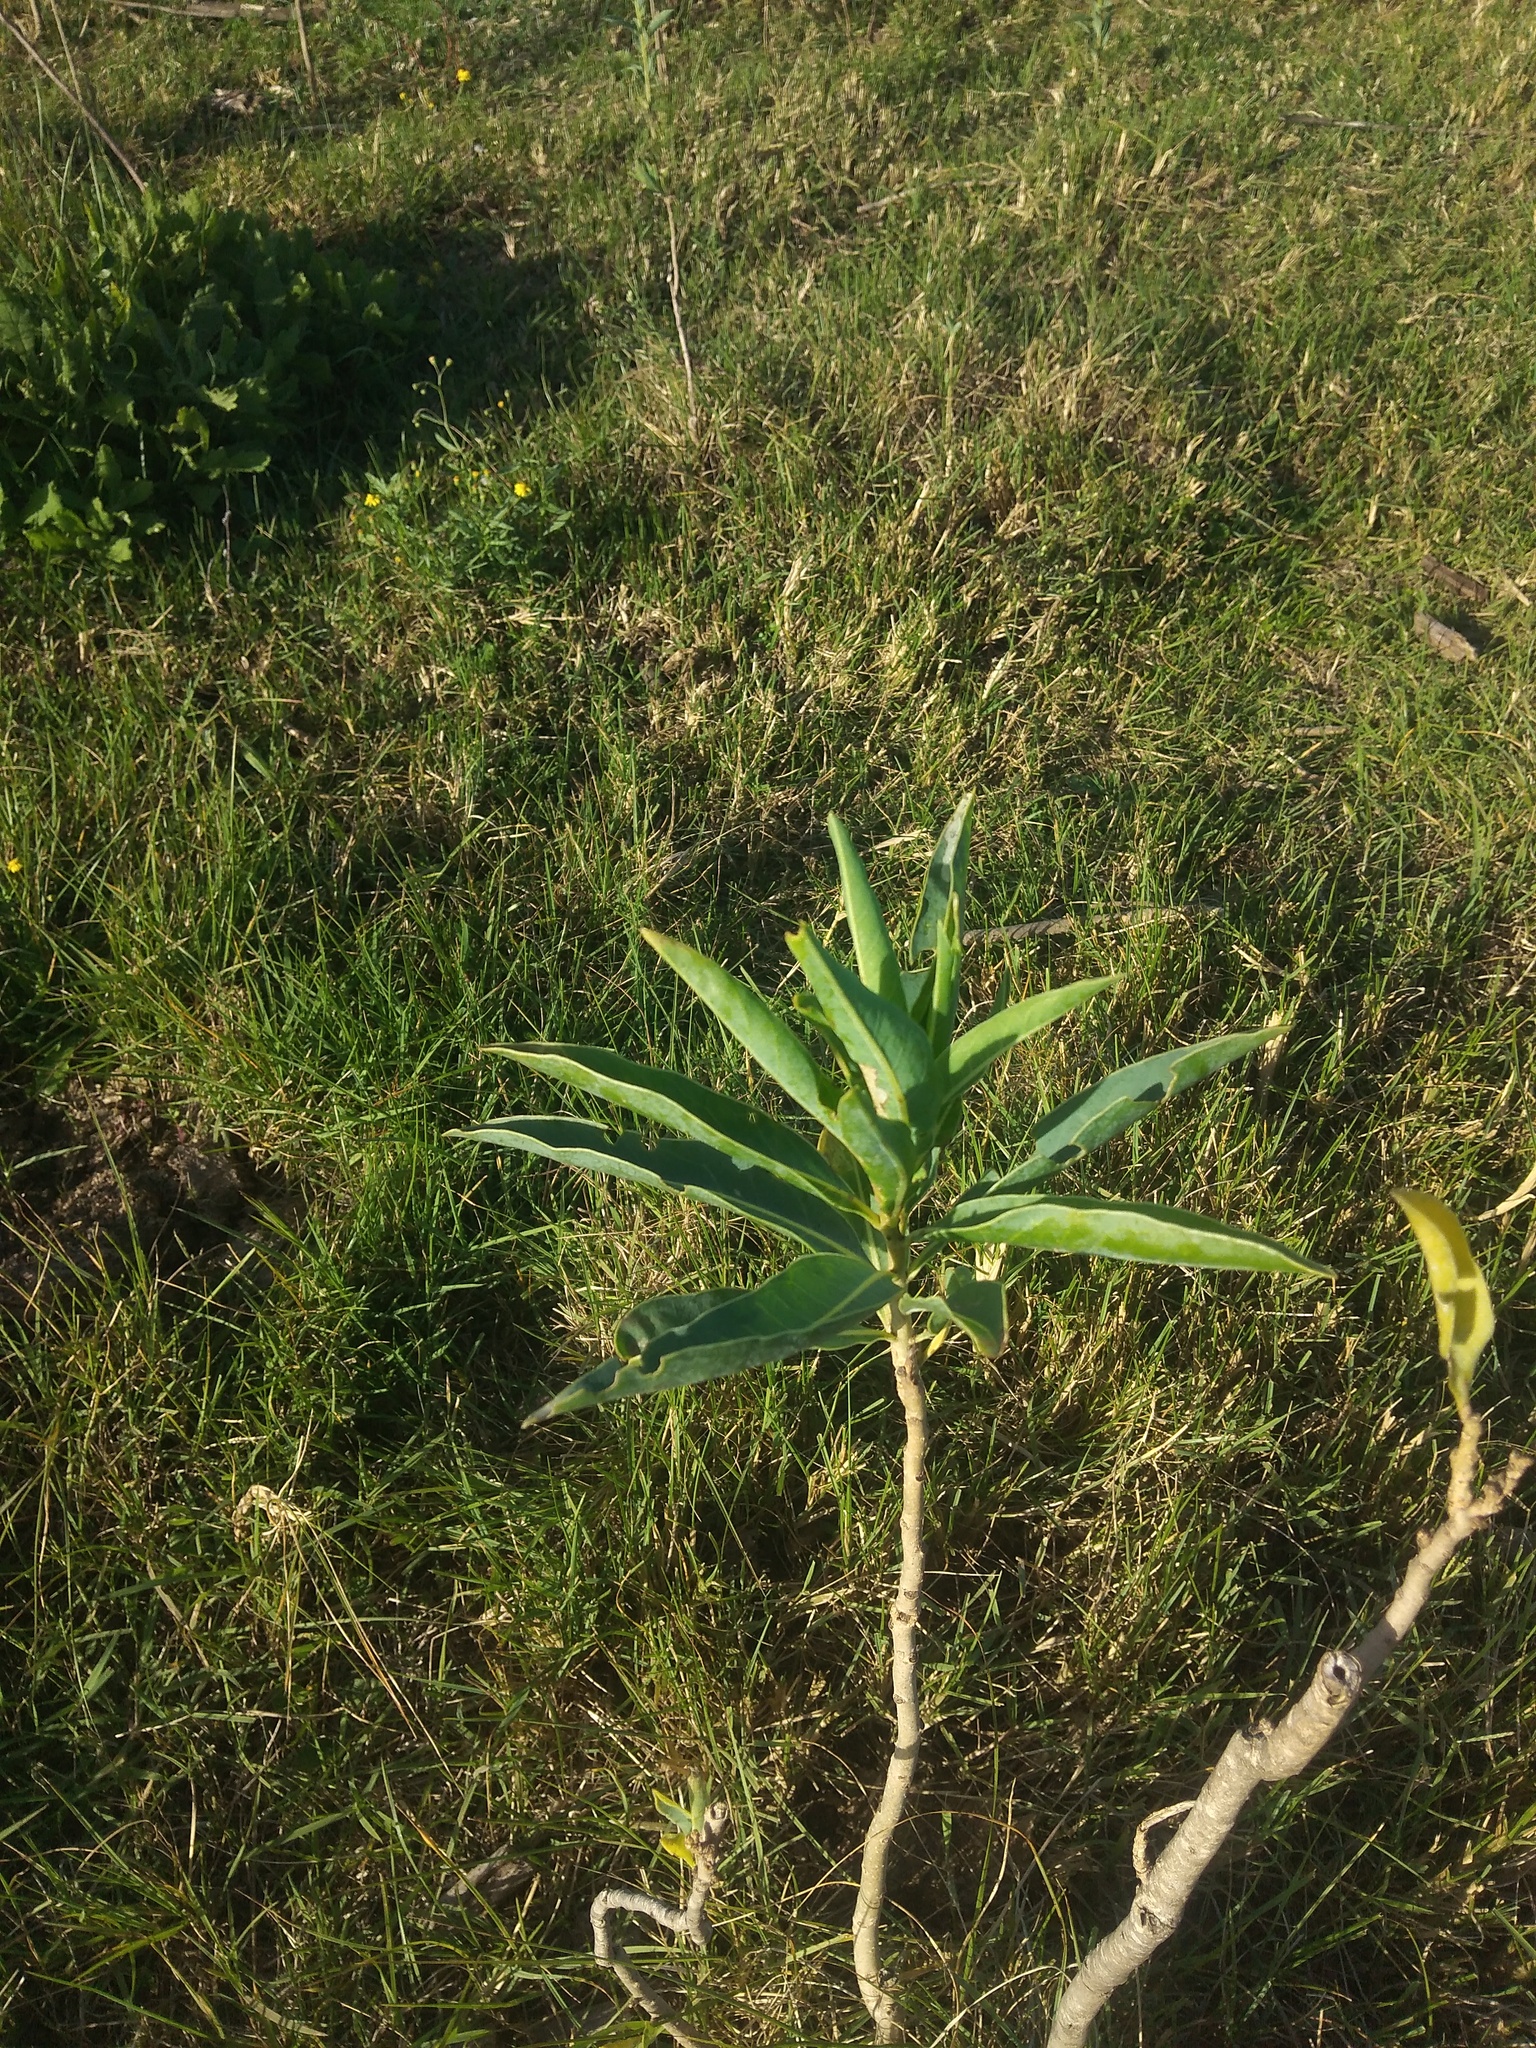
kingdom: Plantae
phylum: Tracheophyta
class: Magnoliopsida
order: Solanales
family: Solanaceae
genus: Solanum
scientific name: Solanum glaucophyllum
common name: Waxyleaf nightshade
